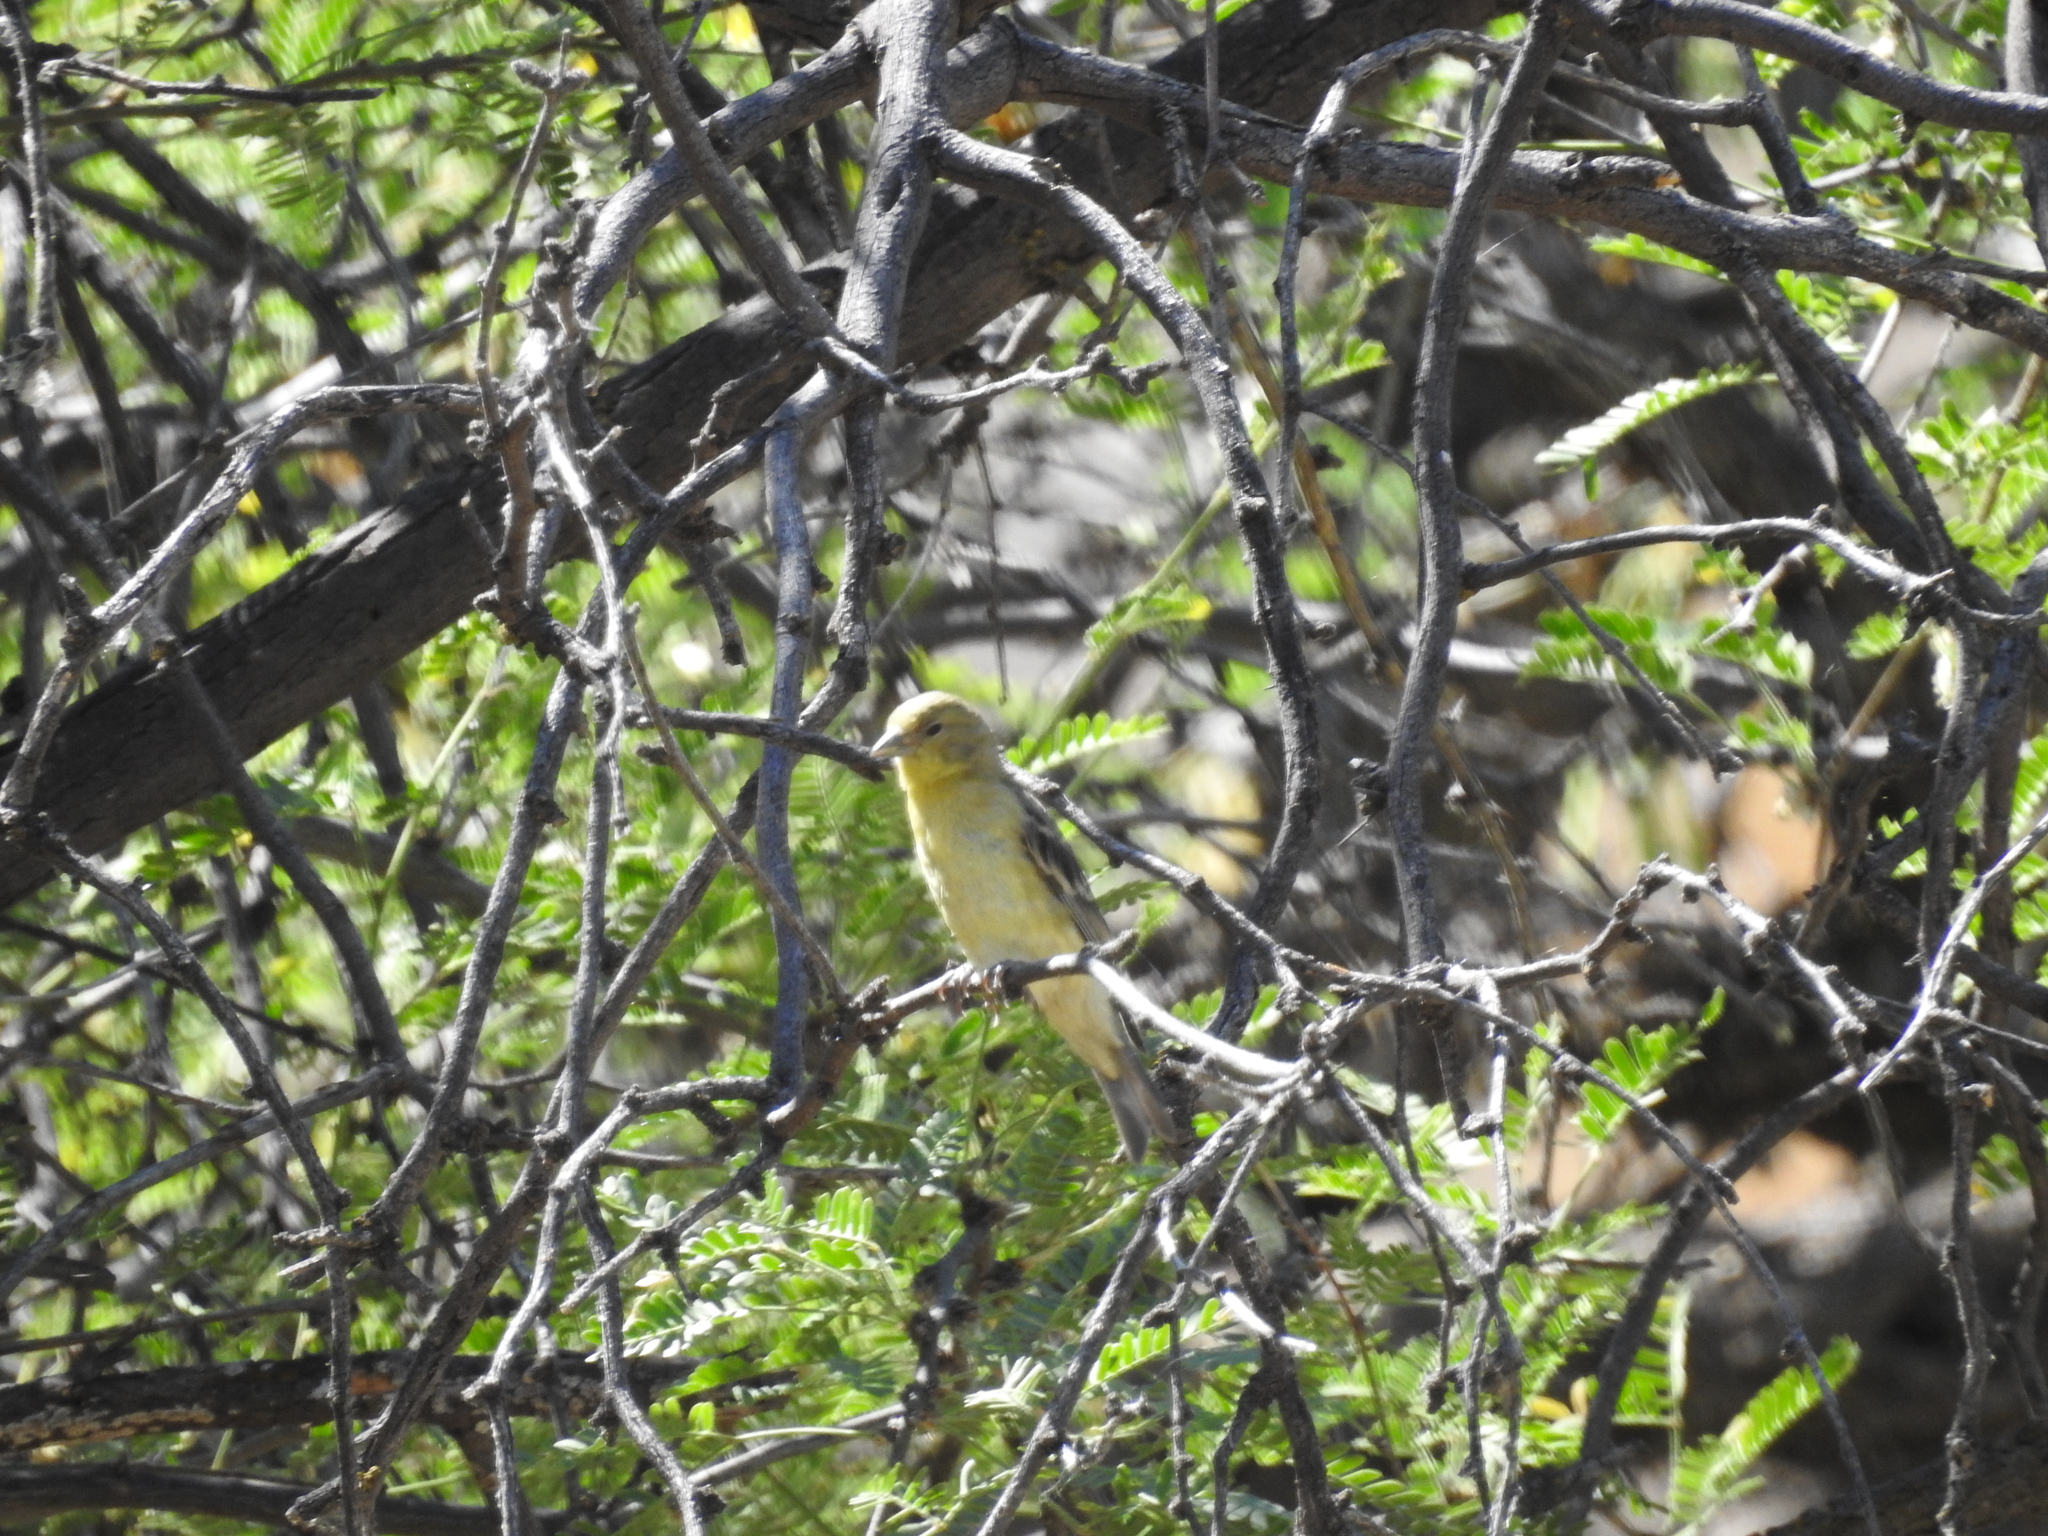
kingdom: Animalia
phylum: Chordata
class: Aves
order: Passeriformes
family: Fringillidae
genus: Spinus
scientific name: Spinus psaltria
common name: Lesser goldfinch
